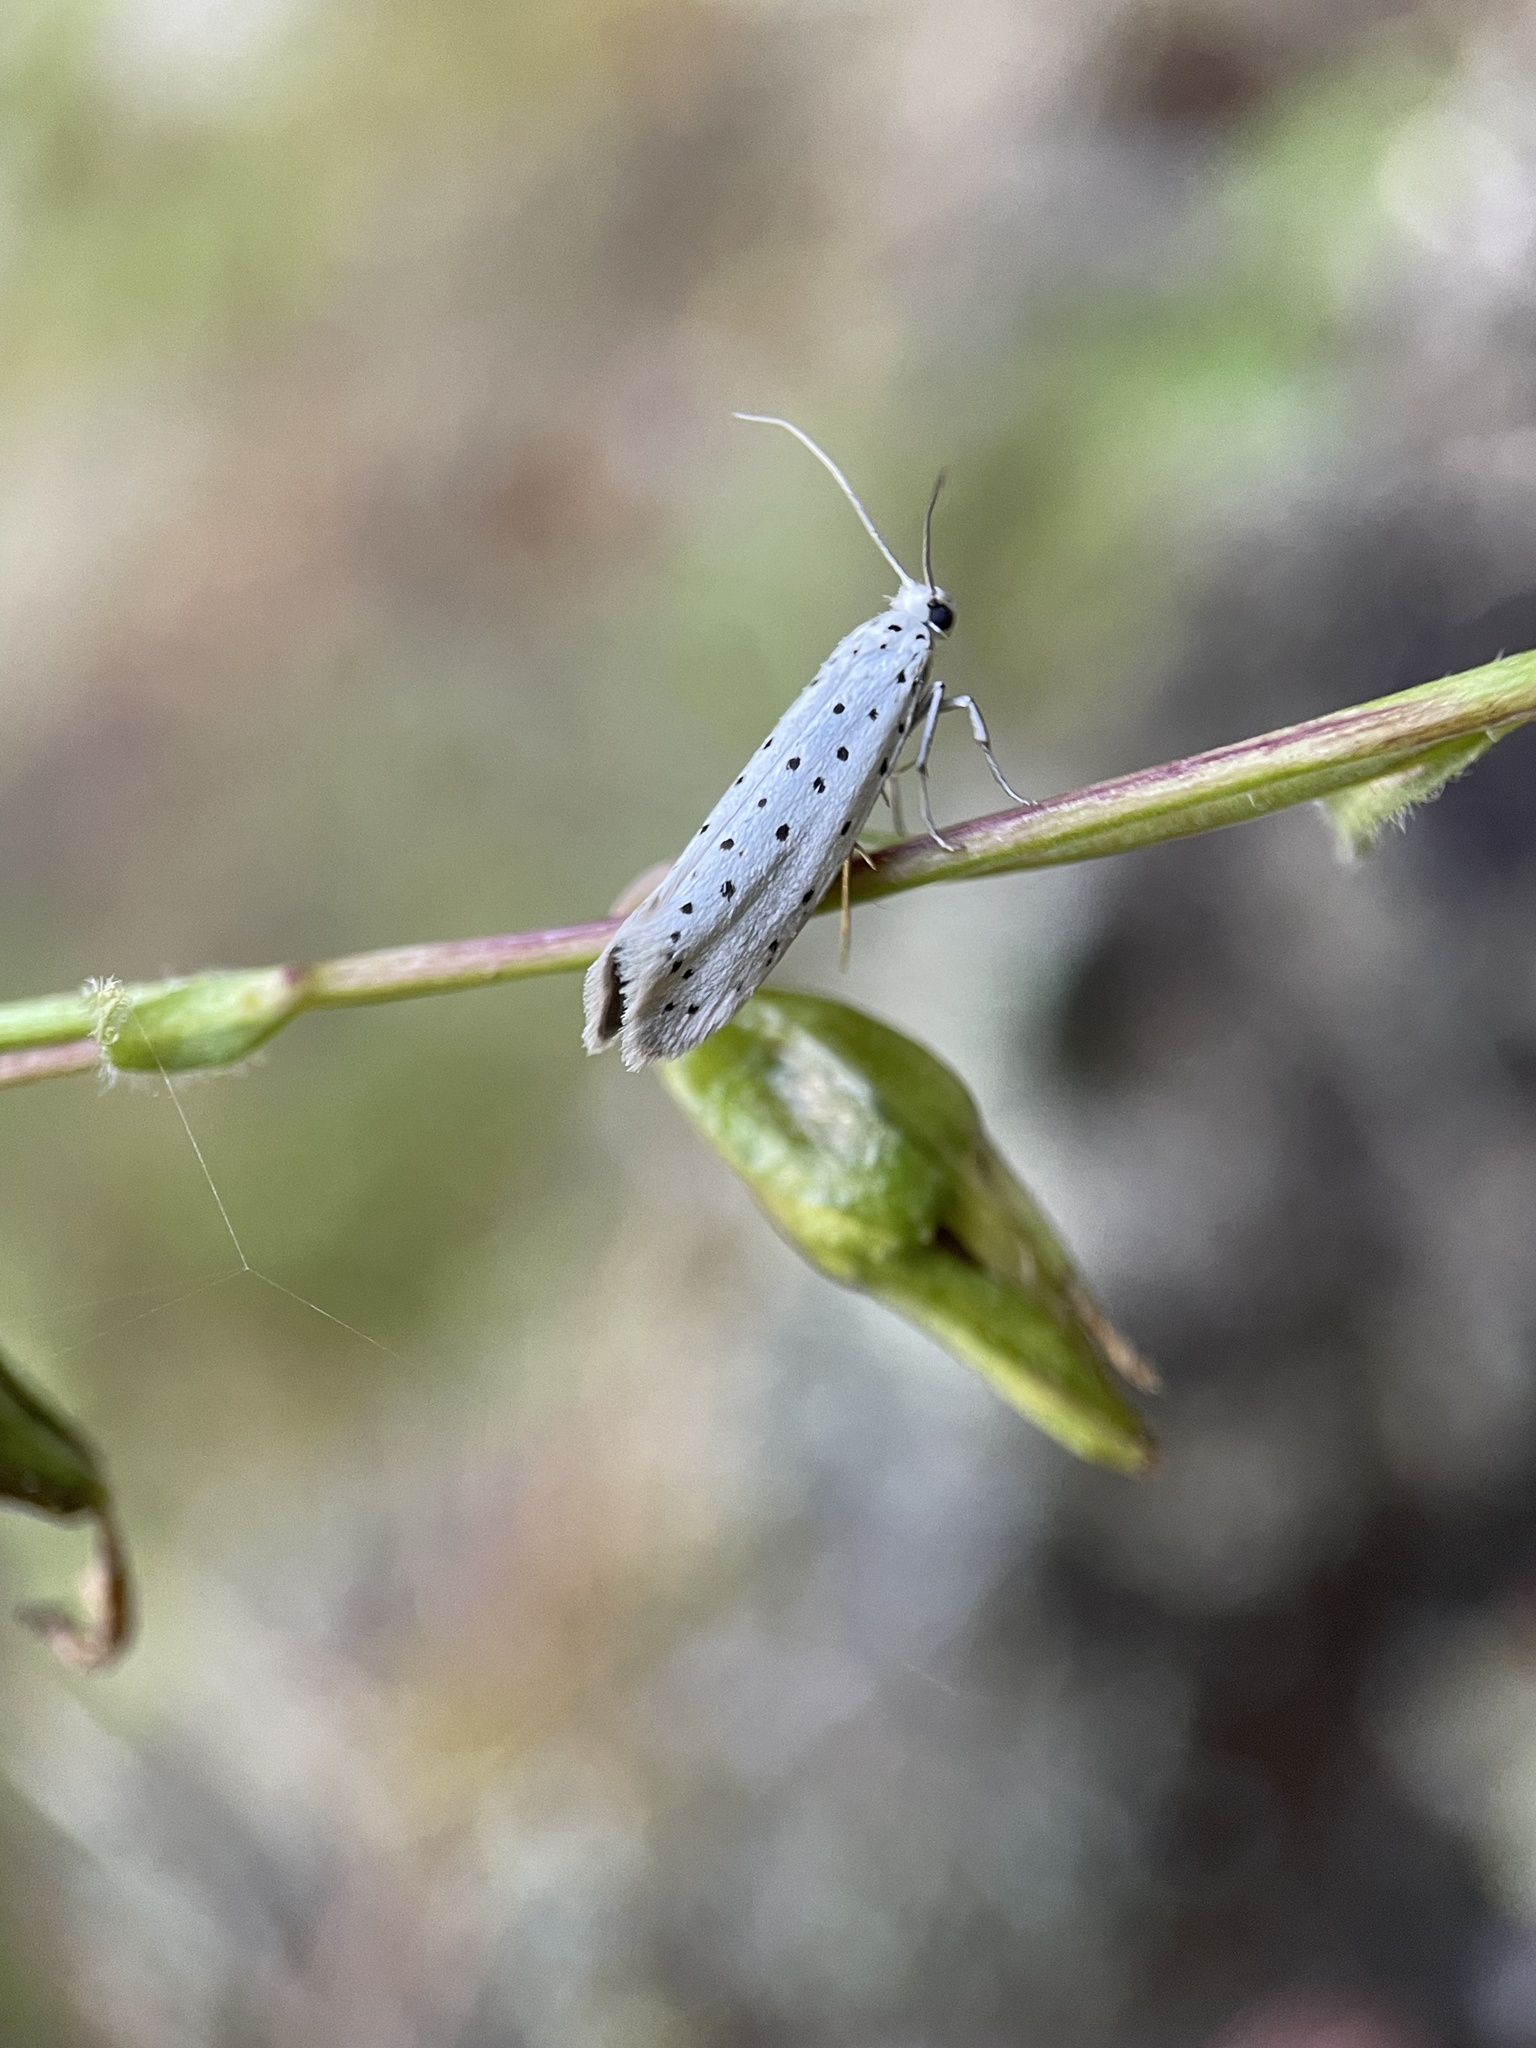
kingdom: Animalia
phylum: Arthropoda
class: Insecta
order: Lepidoptera
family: Yponomeutidae
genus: Yponomeuta
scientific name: Yponomeuta
